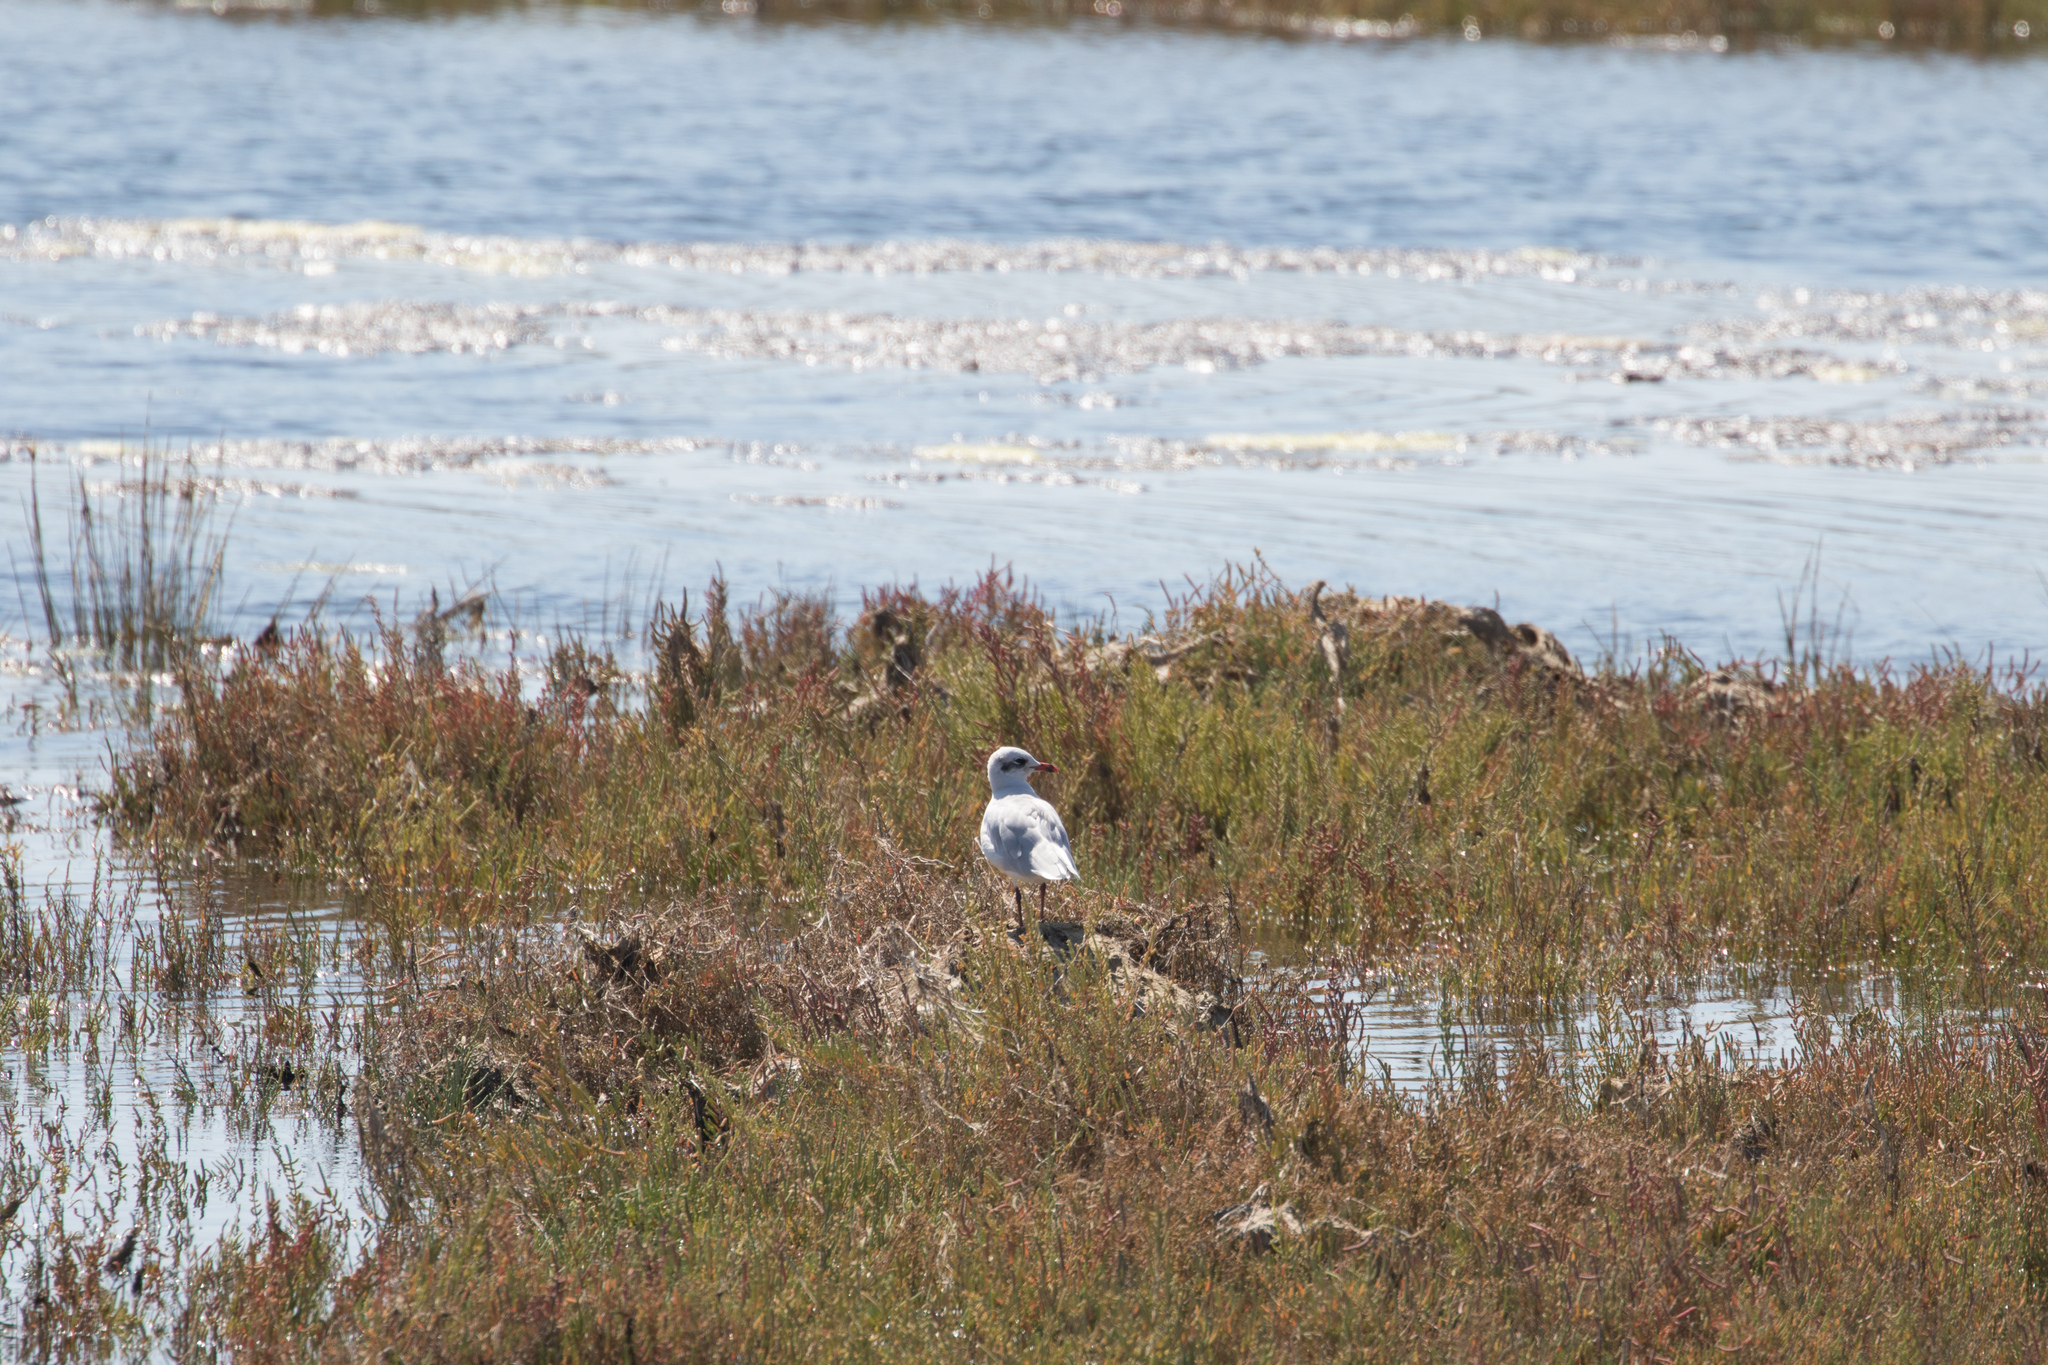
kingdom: Animalia
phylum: Chordata
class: Aves
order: Charadriiformes
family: Laridae
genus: Ichthyaetus
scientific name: Ichthyaetus melanocephalus
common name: Mediterranean gull
